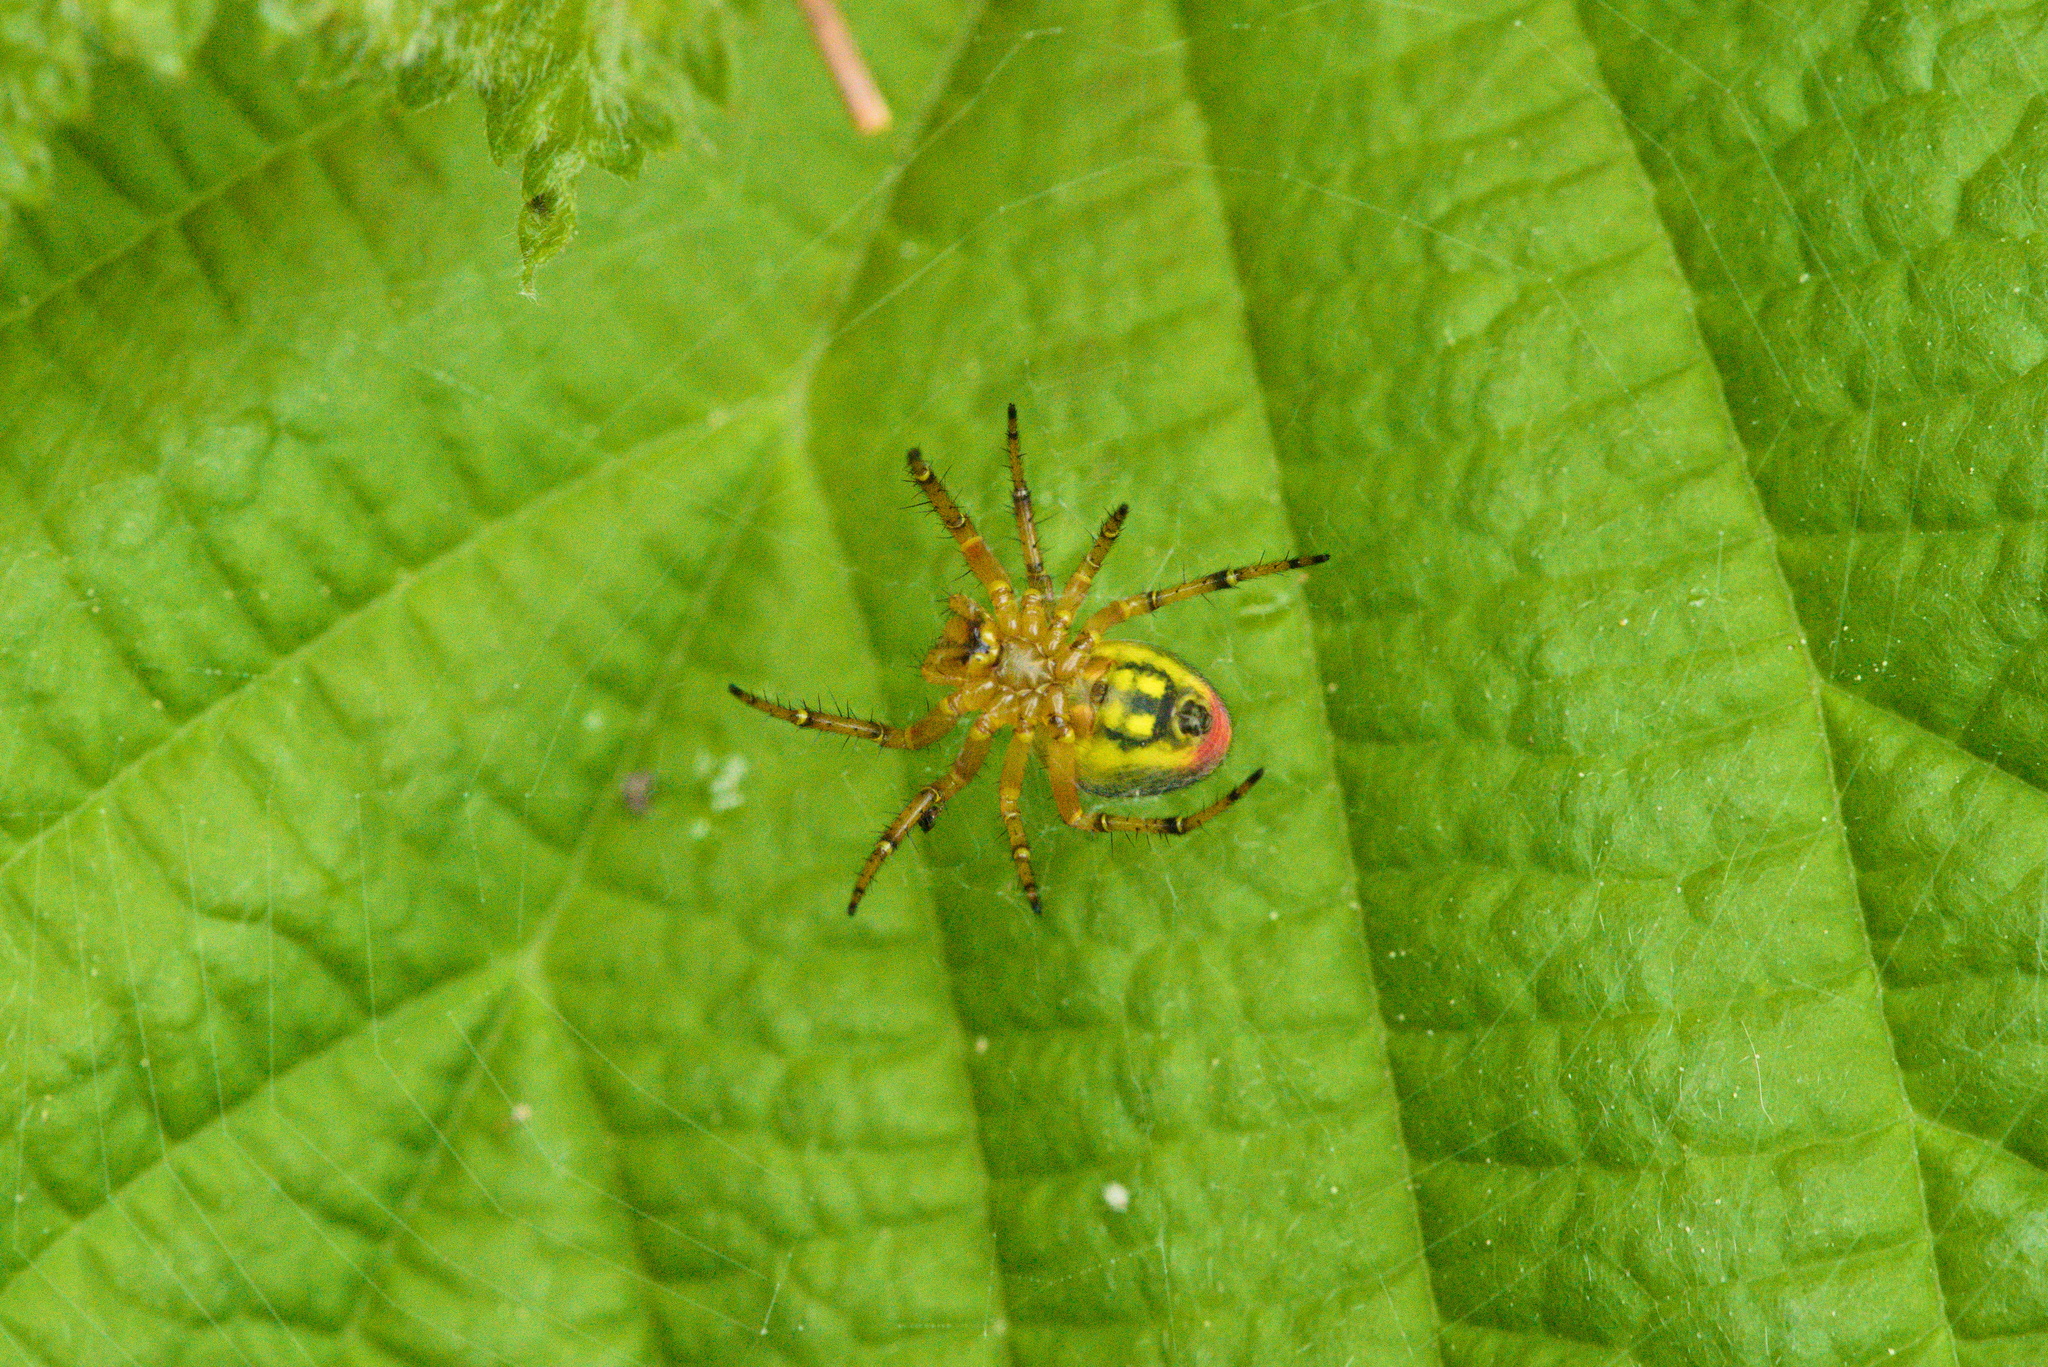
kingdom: Animalia
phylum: Arthropoda
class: Arachnida
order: Araneae
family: Araneidae
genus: Araniella
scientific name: Araniella alpica
